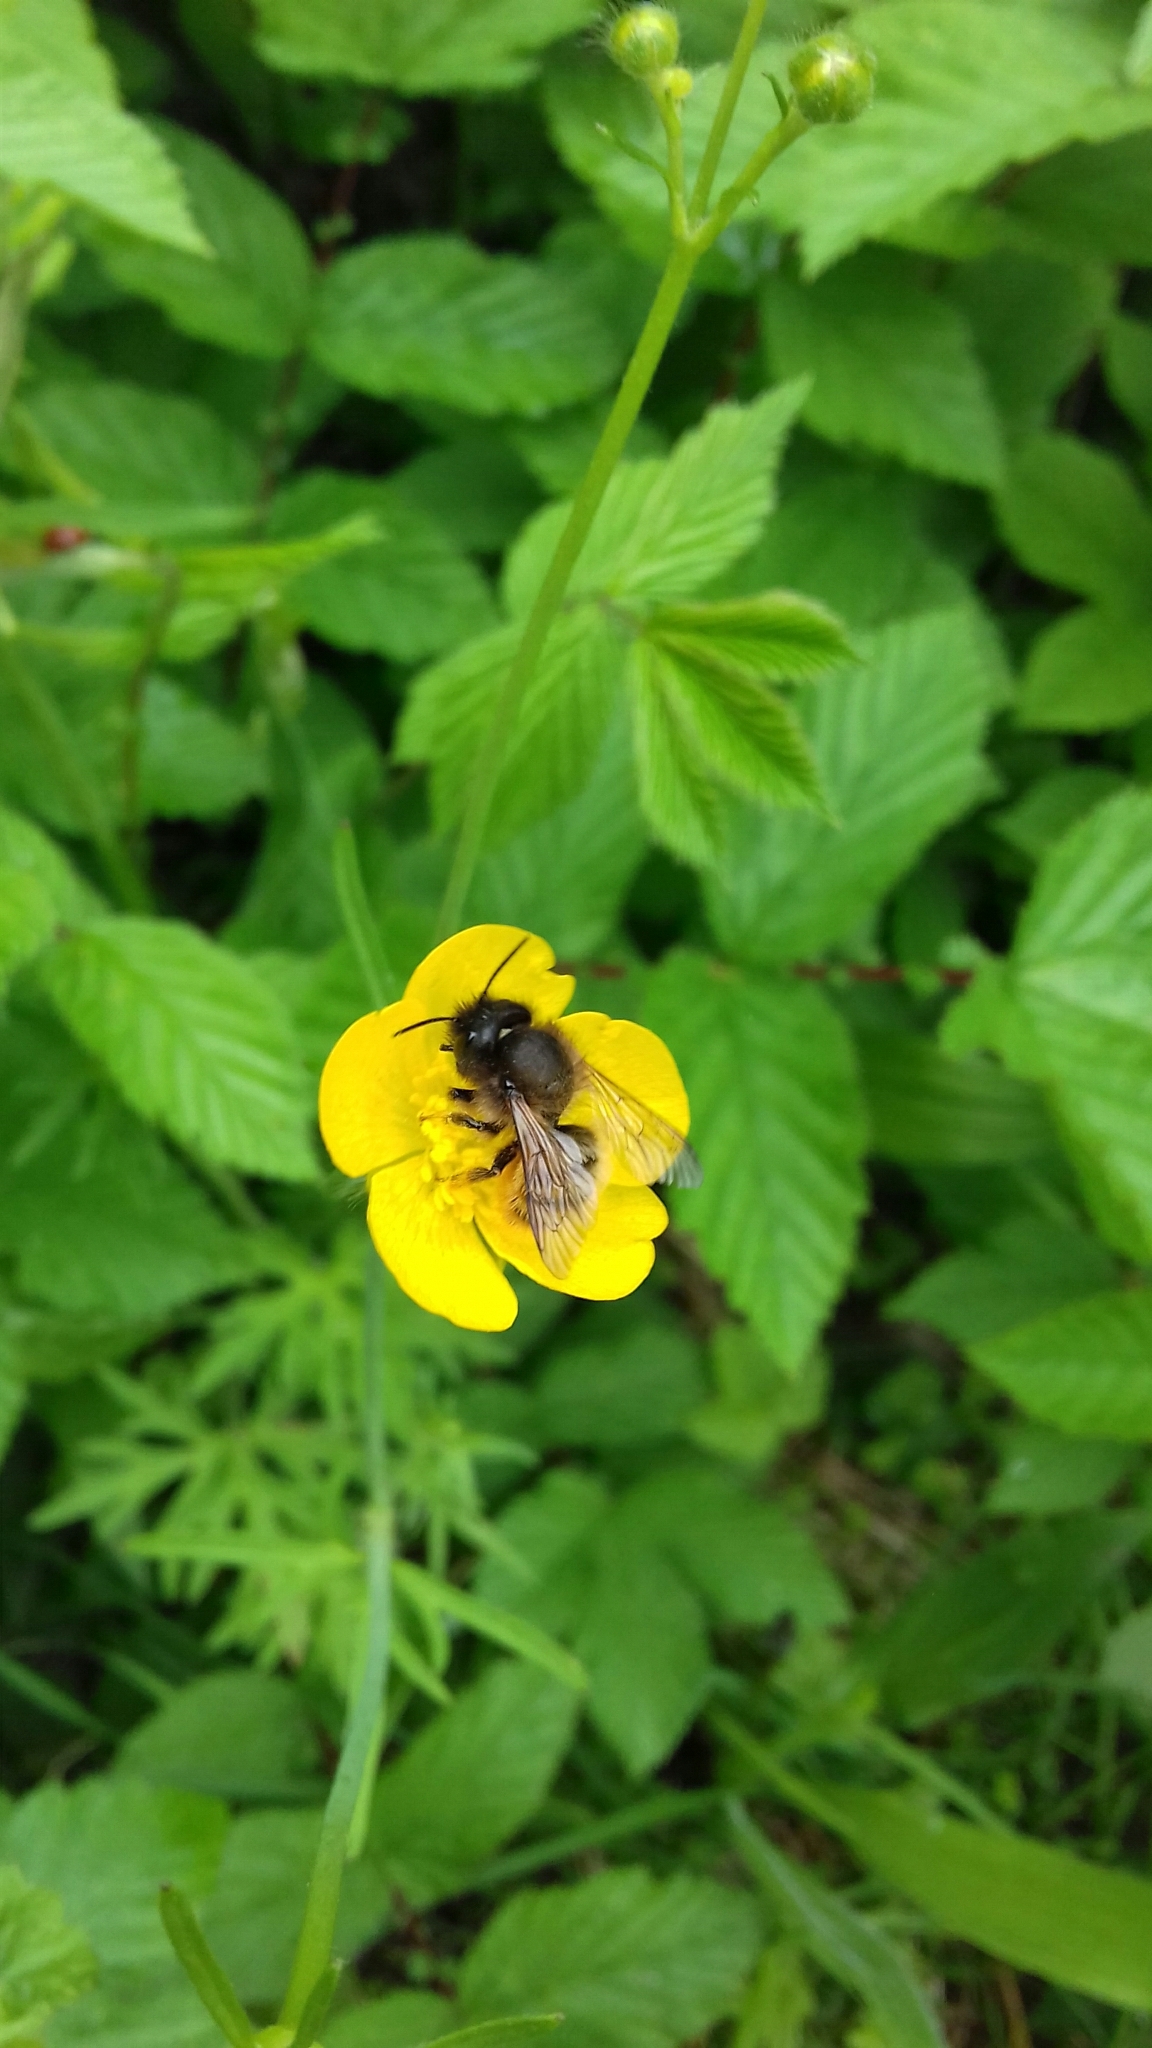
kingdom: Animalia
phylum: Arthropoda
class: Insecta
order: Hymenoptera
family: Megachilidae
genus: Osmia
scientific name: Osmia bicornis
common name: Red mason bee
